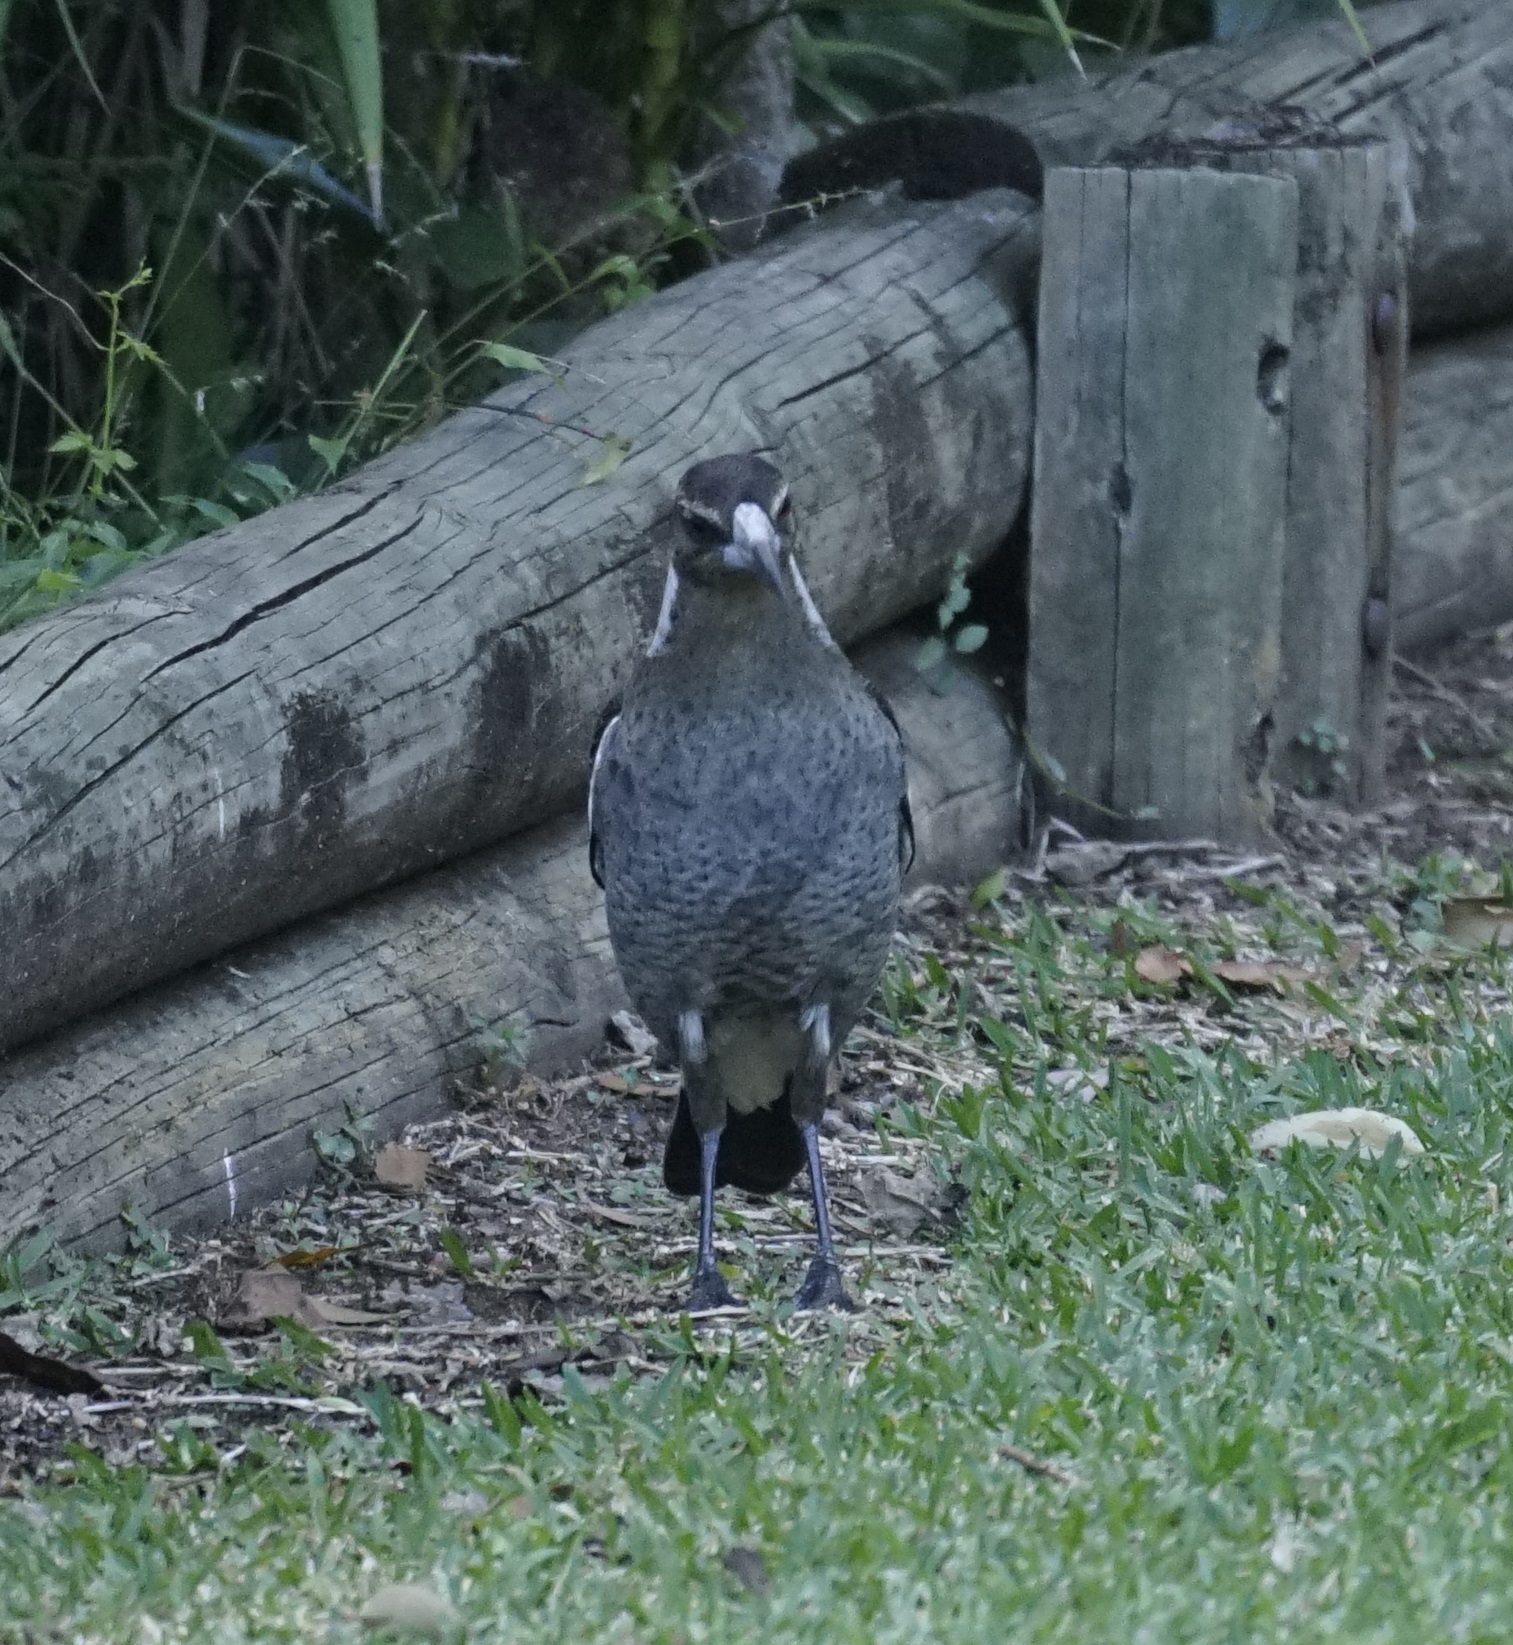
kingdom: Animalia
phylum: Chordata
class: Aves
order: Passeriformes
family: Cracticidae
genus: Gymnorhina
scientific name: Gymnorhina tibicen
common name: Australian magpie
